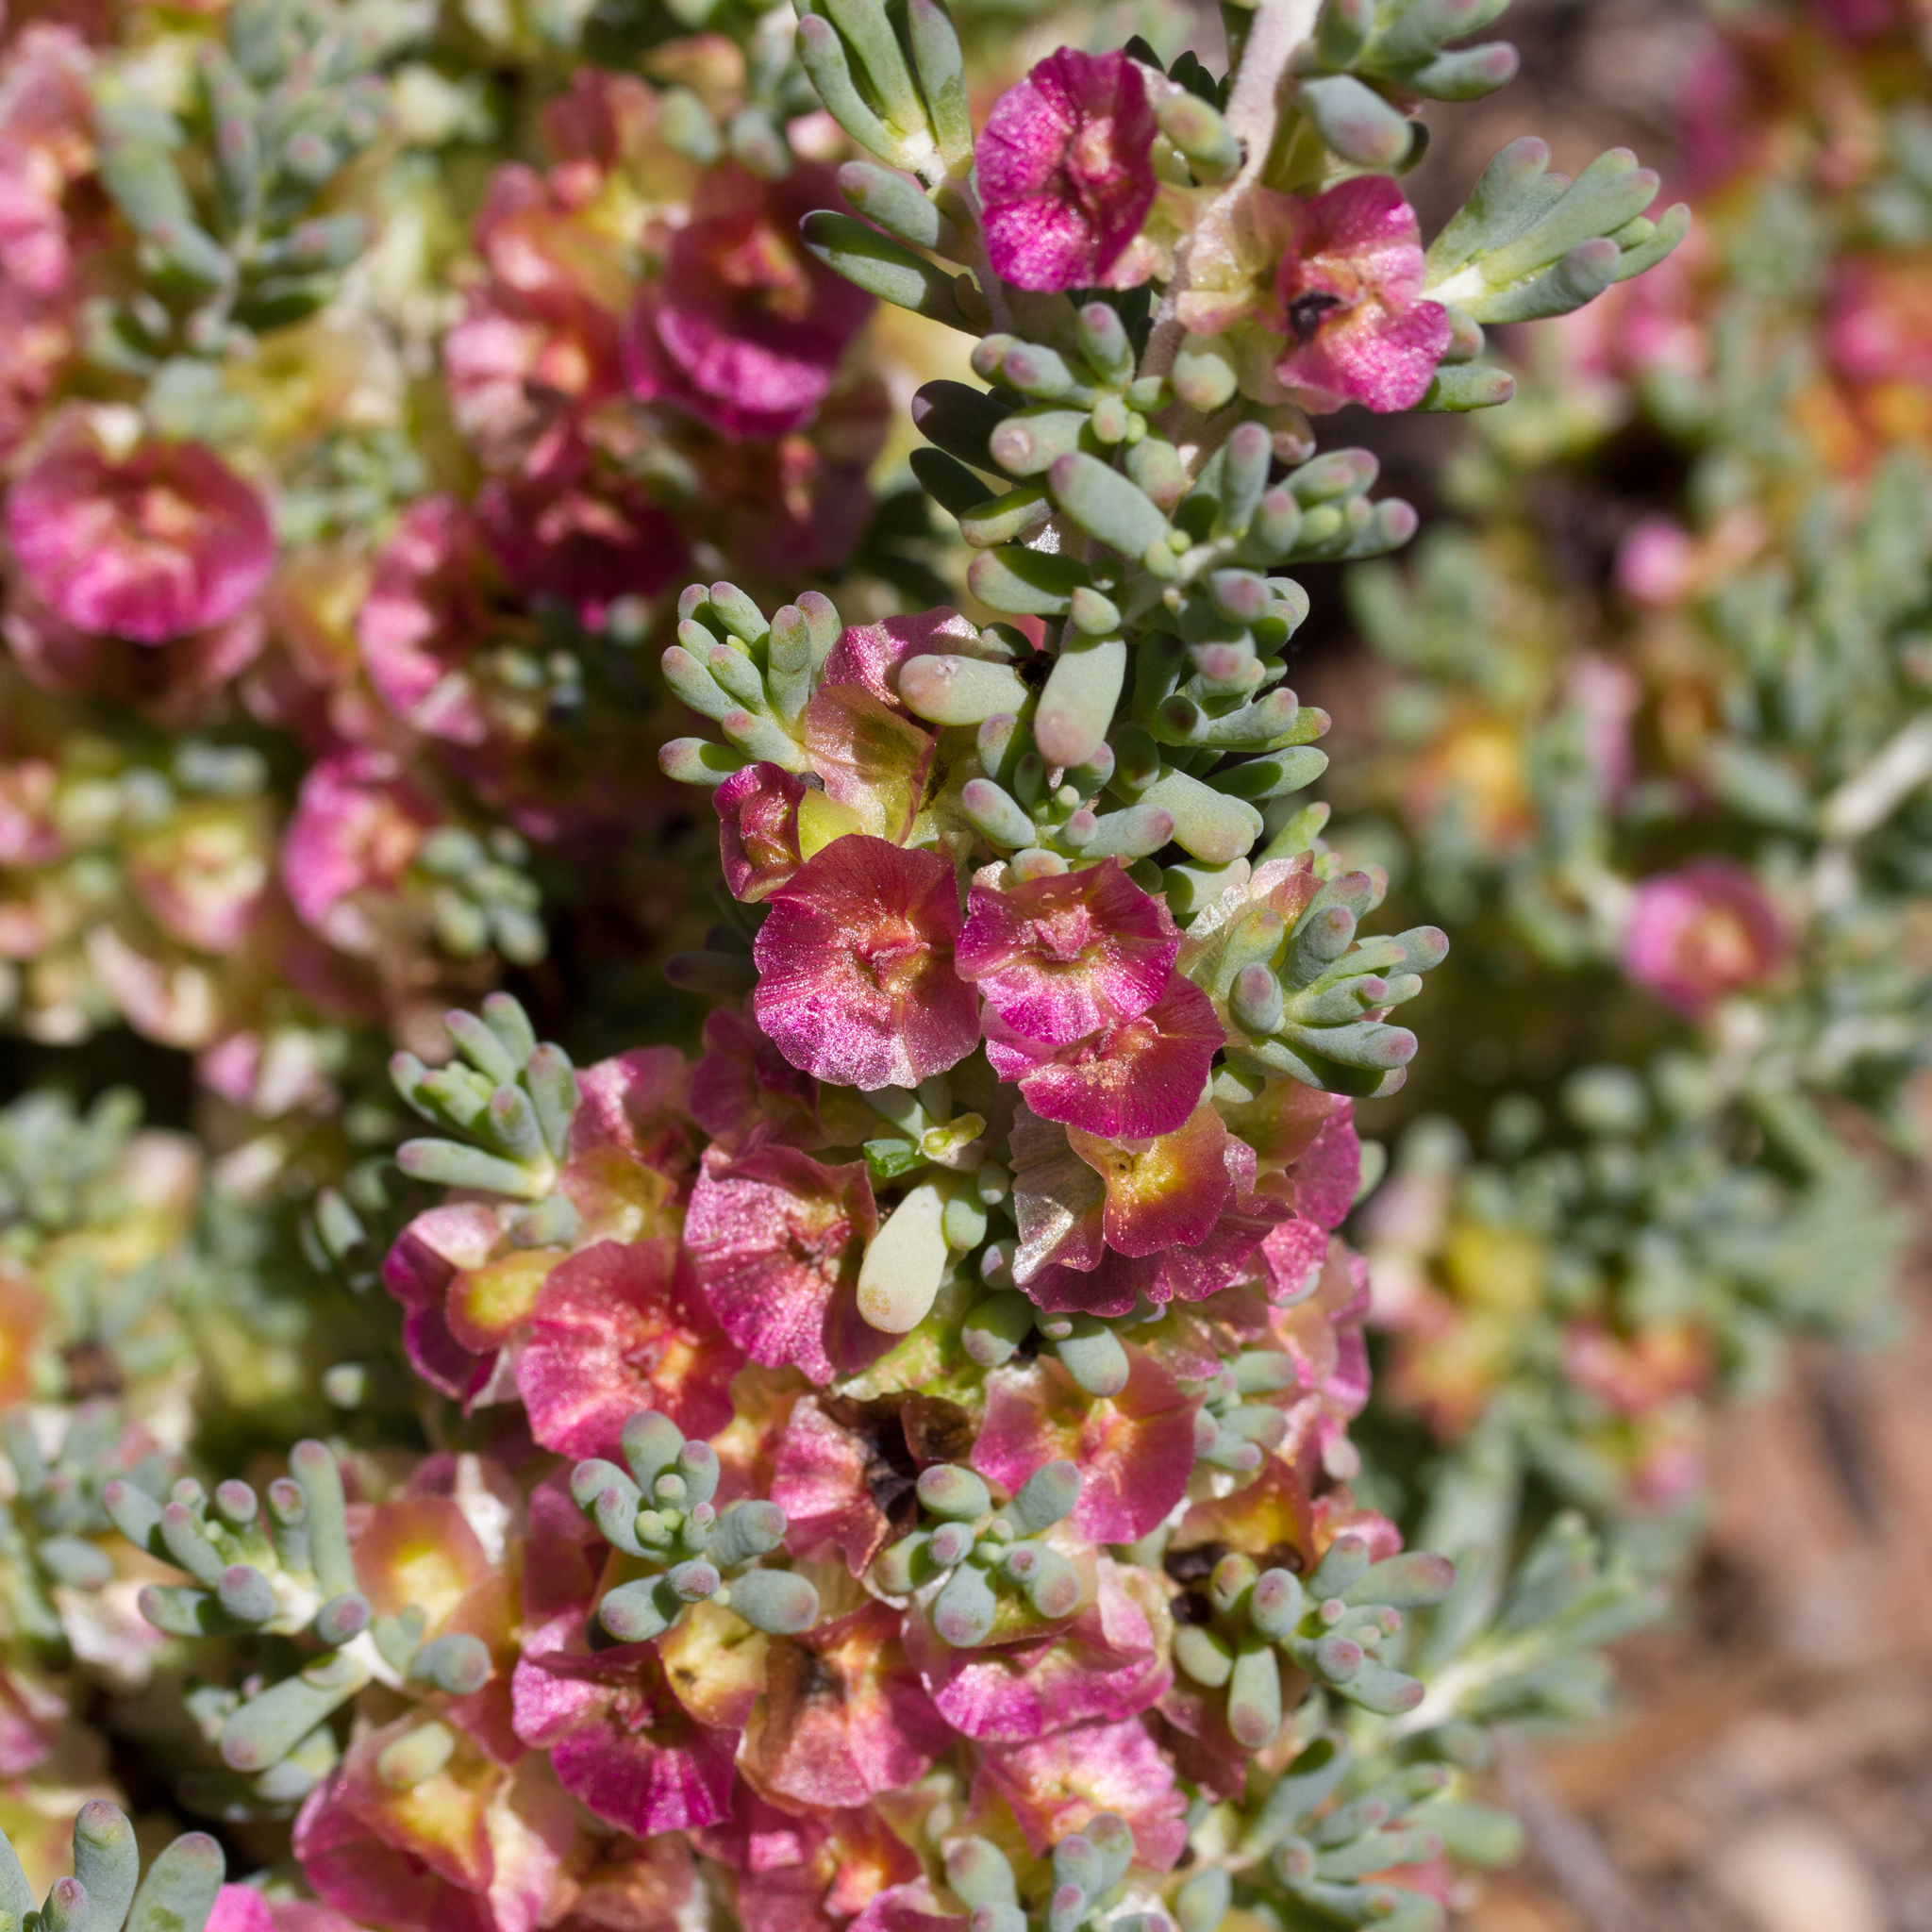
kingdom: Plantae
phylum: Tracheophyta
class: Magnoliopsida
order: Caryophyllales
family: Amaranthaceae
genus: Maireana
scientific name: Maireana erioclada
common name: Rosy bluebush
